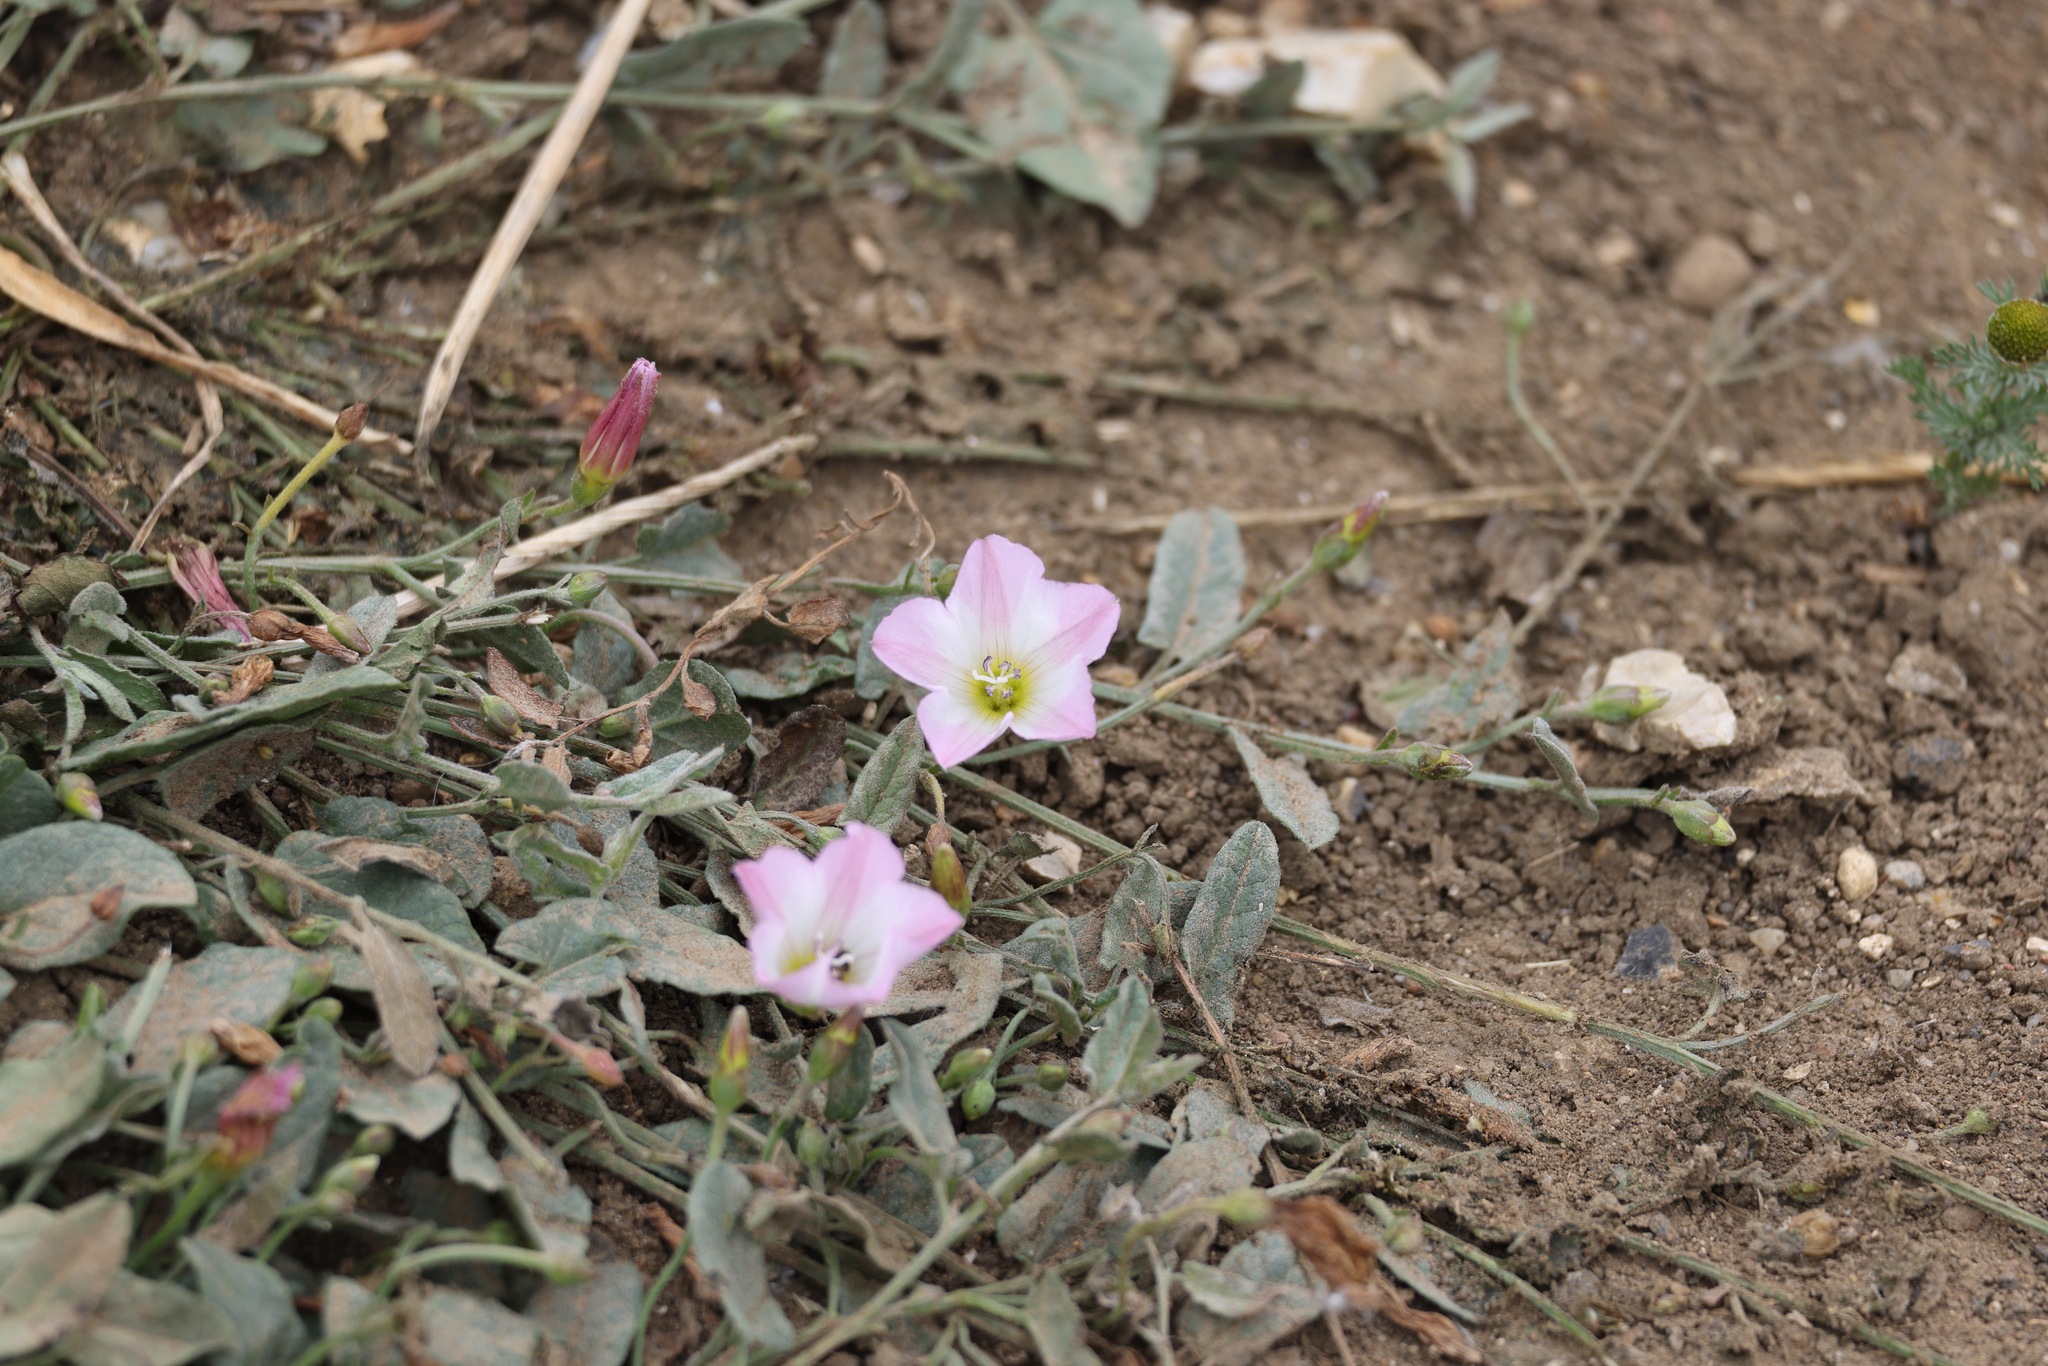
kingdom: Plantae
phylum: Tracheophyta
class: Magnoliopsida
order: Solanales
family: Convolvulaceae
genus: Convolvulus
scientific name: Convolvulus arvensis
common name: Field bindweed
